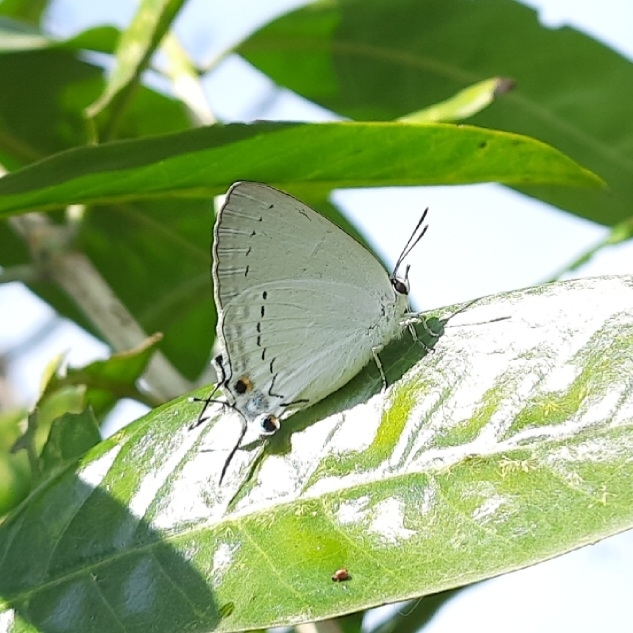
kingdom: Animalia
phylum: Arthropoda
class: Insecta
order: Lepidoptera
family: Lycaenidae
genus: Tajuria
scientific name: Tajuria cippus
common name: Peacock royal
